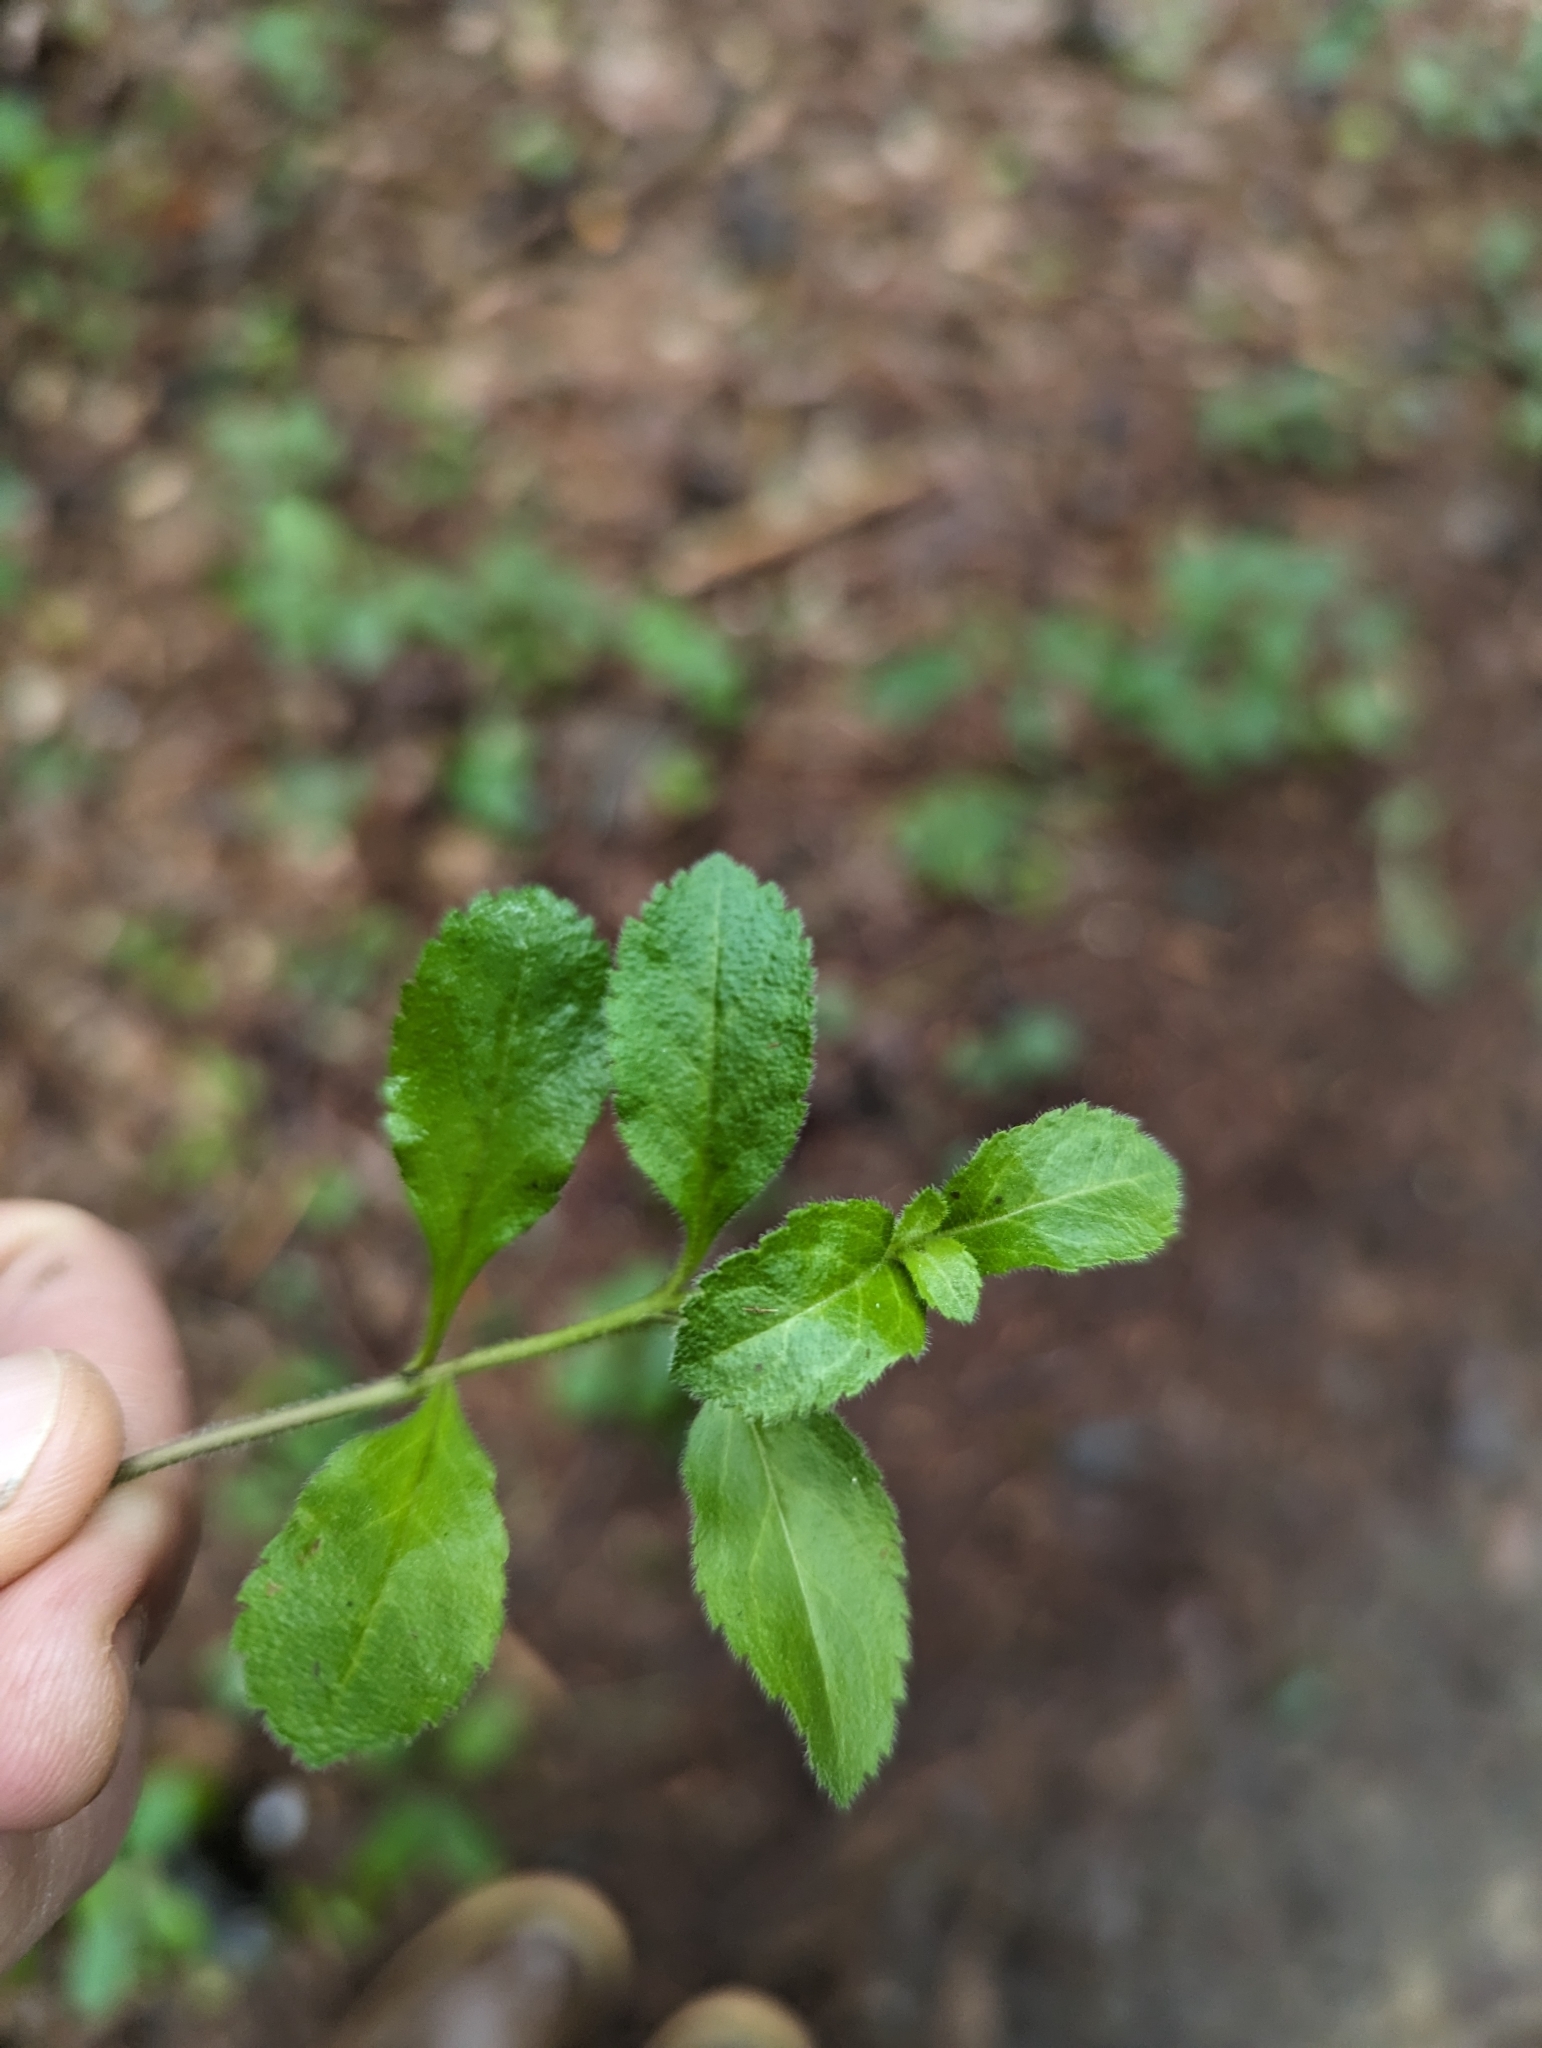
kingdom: Plantae
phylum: Tracheophyta
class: Magnoliopsida
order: Lamiales
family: Plantaginaceae
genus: Veronica
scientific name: Veronica officinalis
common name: Common speedwell
